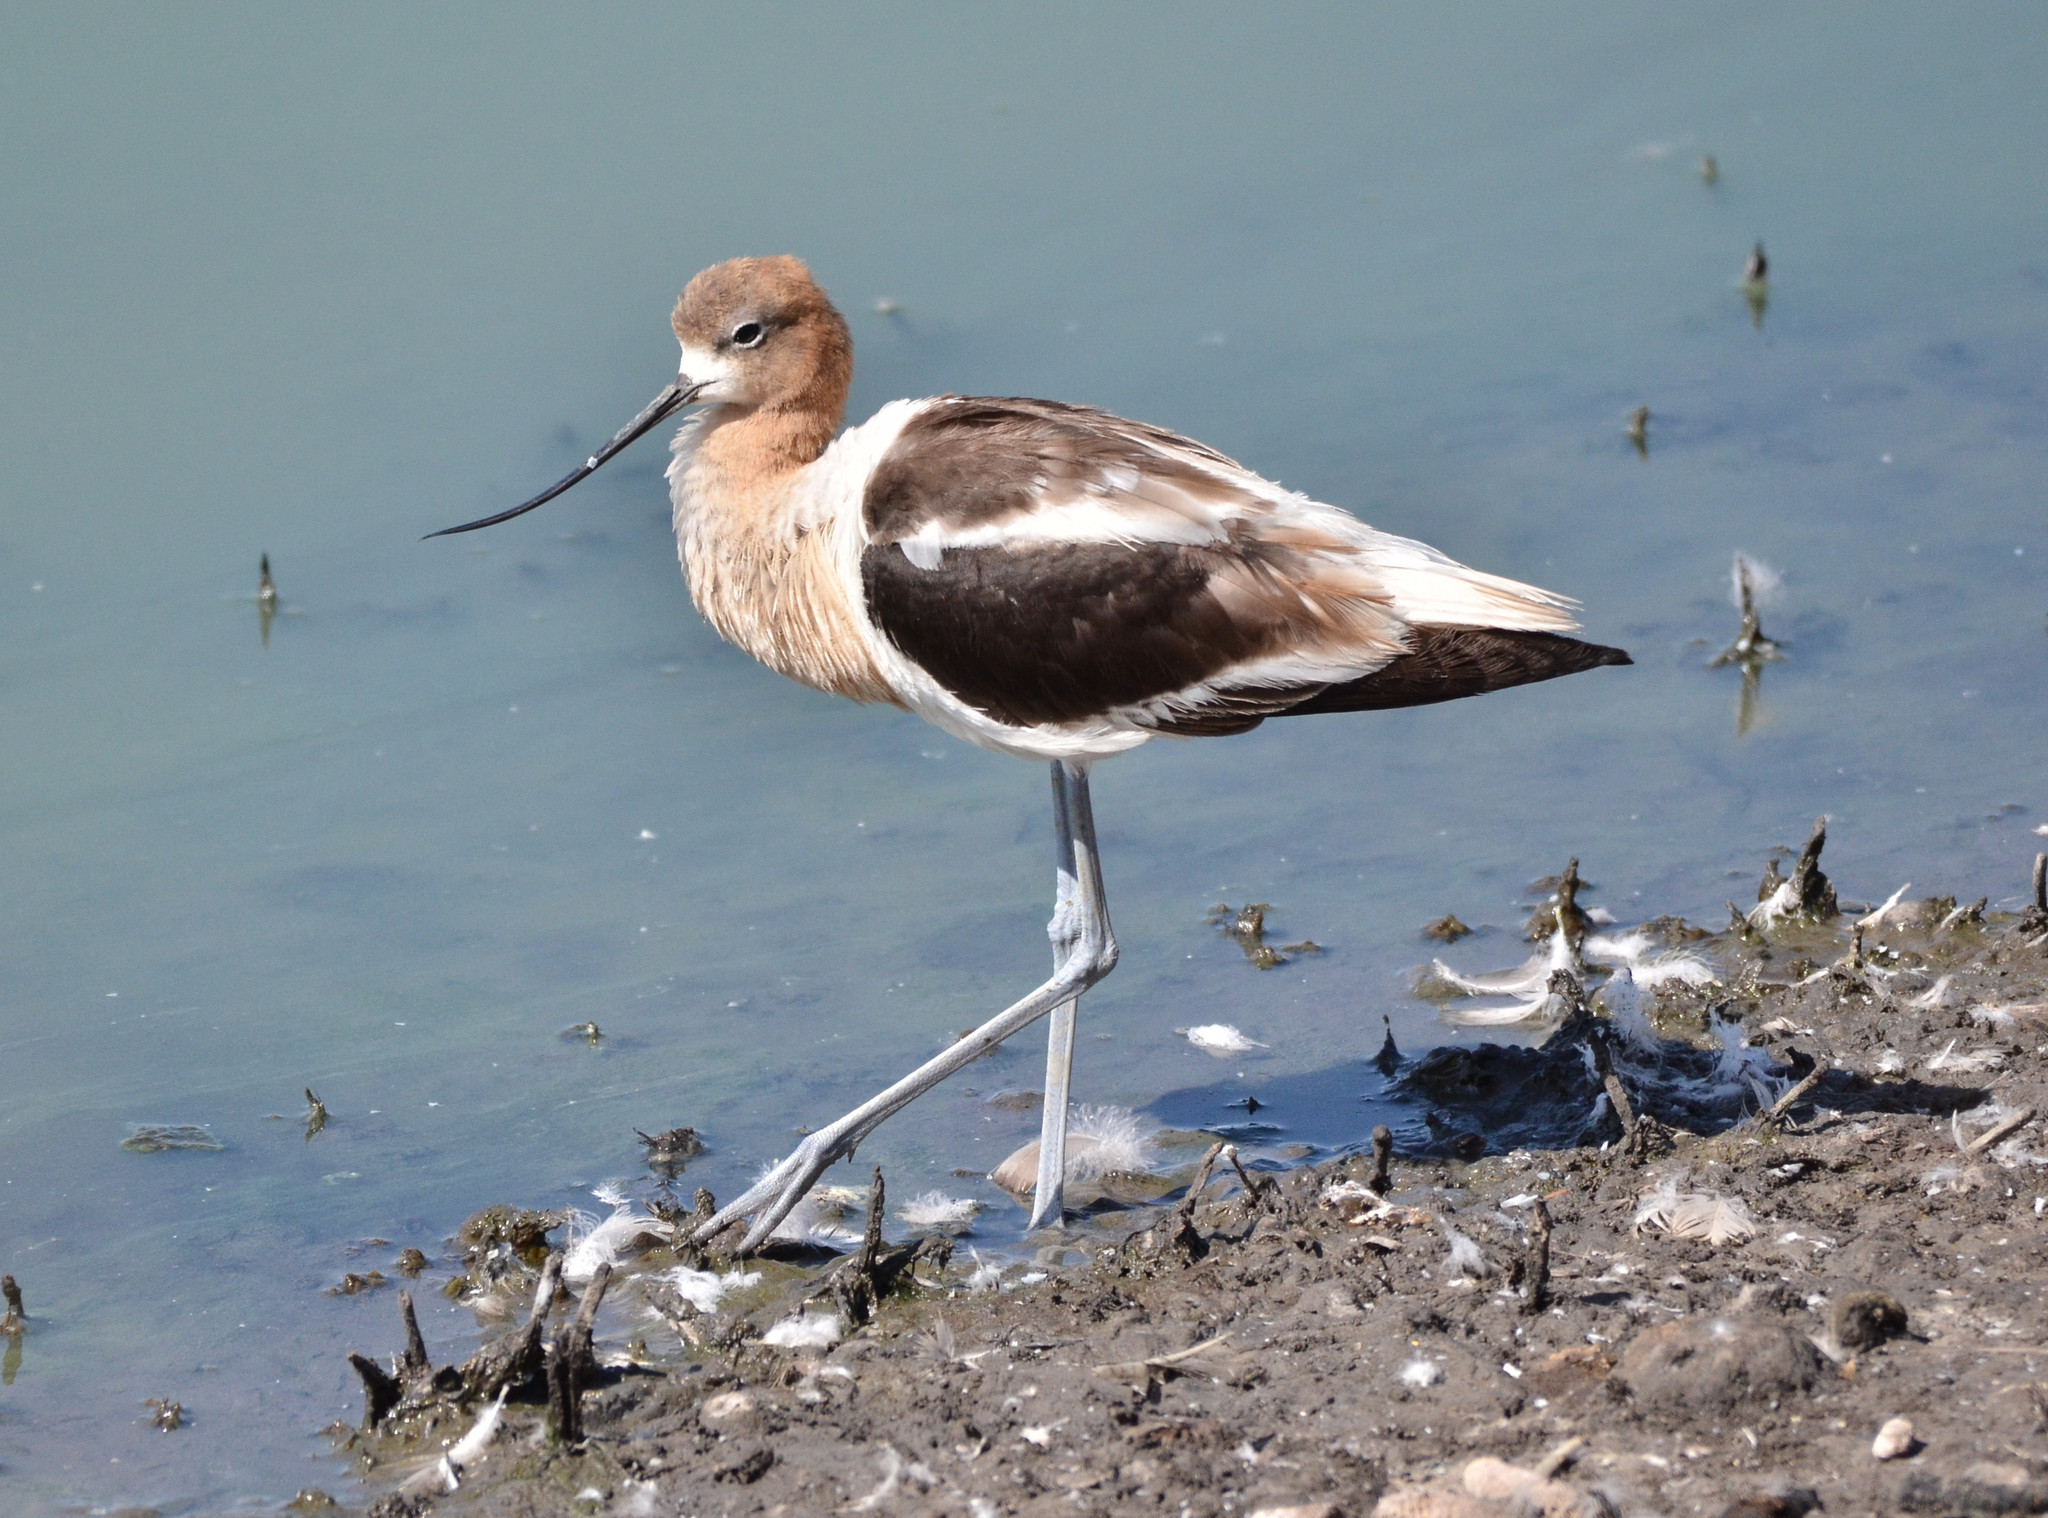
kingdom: Animalia
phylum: Chordata
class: Aves
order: Charadriiformes
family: Recurvirostridae
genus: Recurvirostra
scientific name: Recurvirostra americana
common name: American avocet
